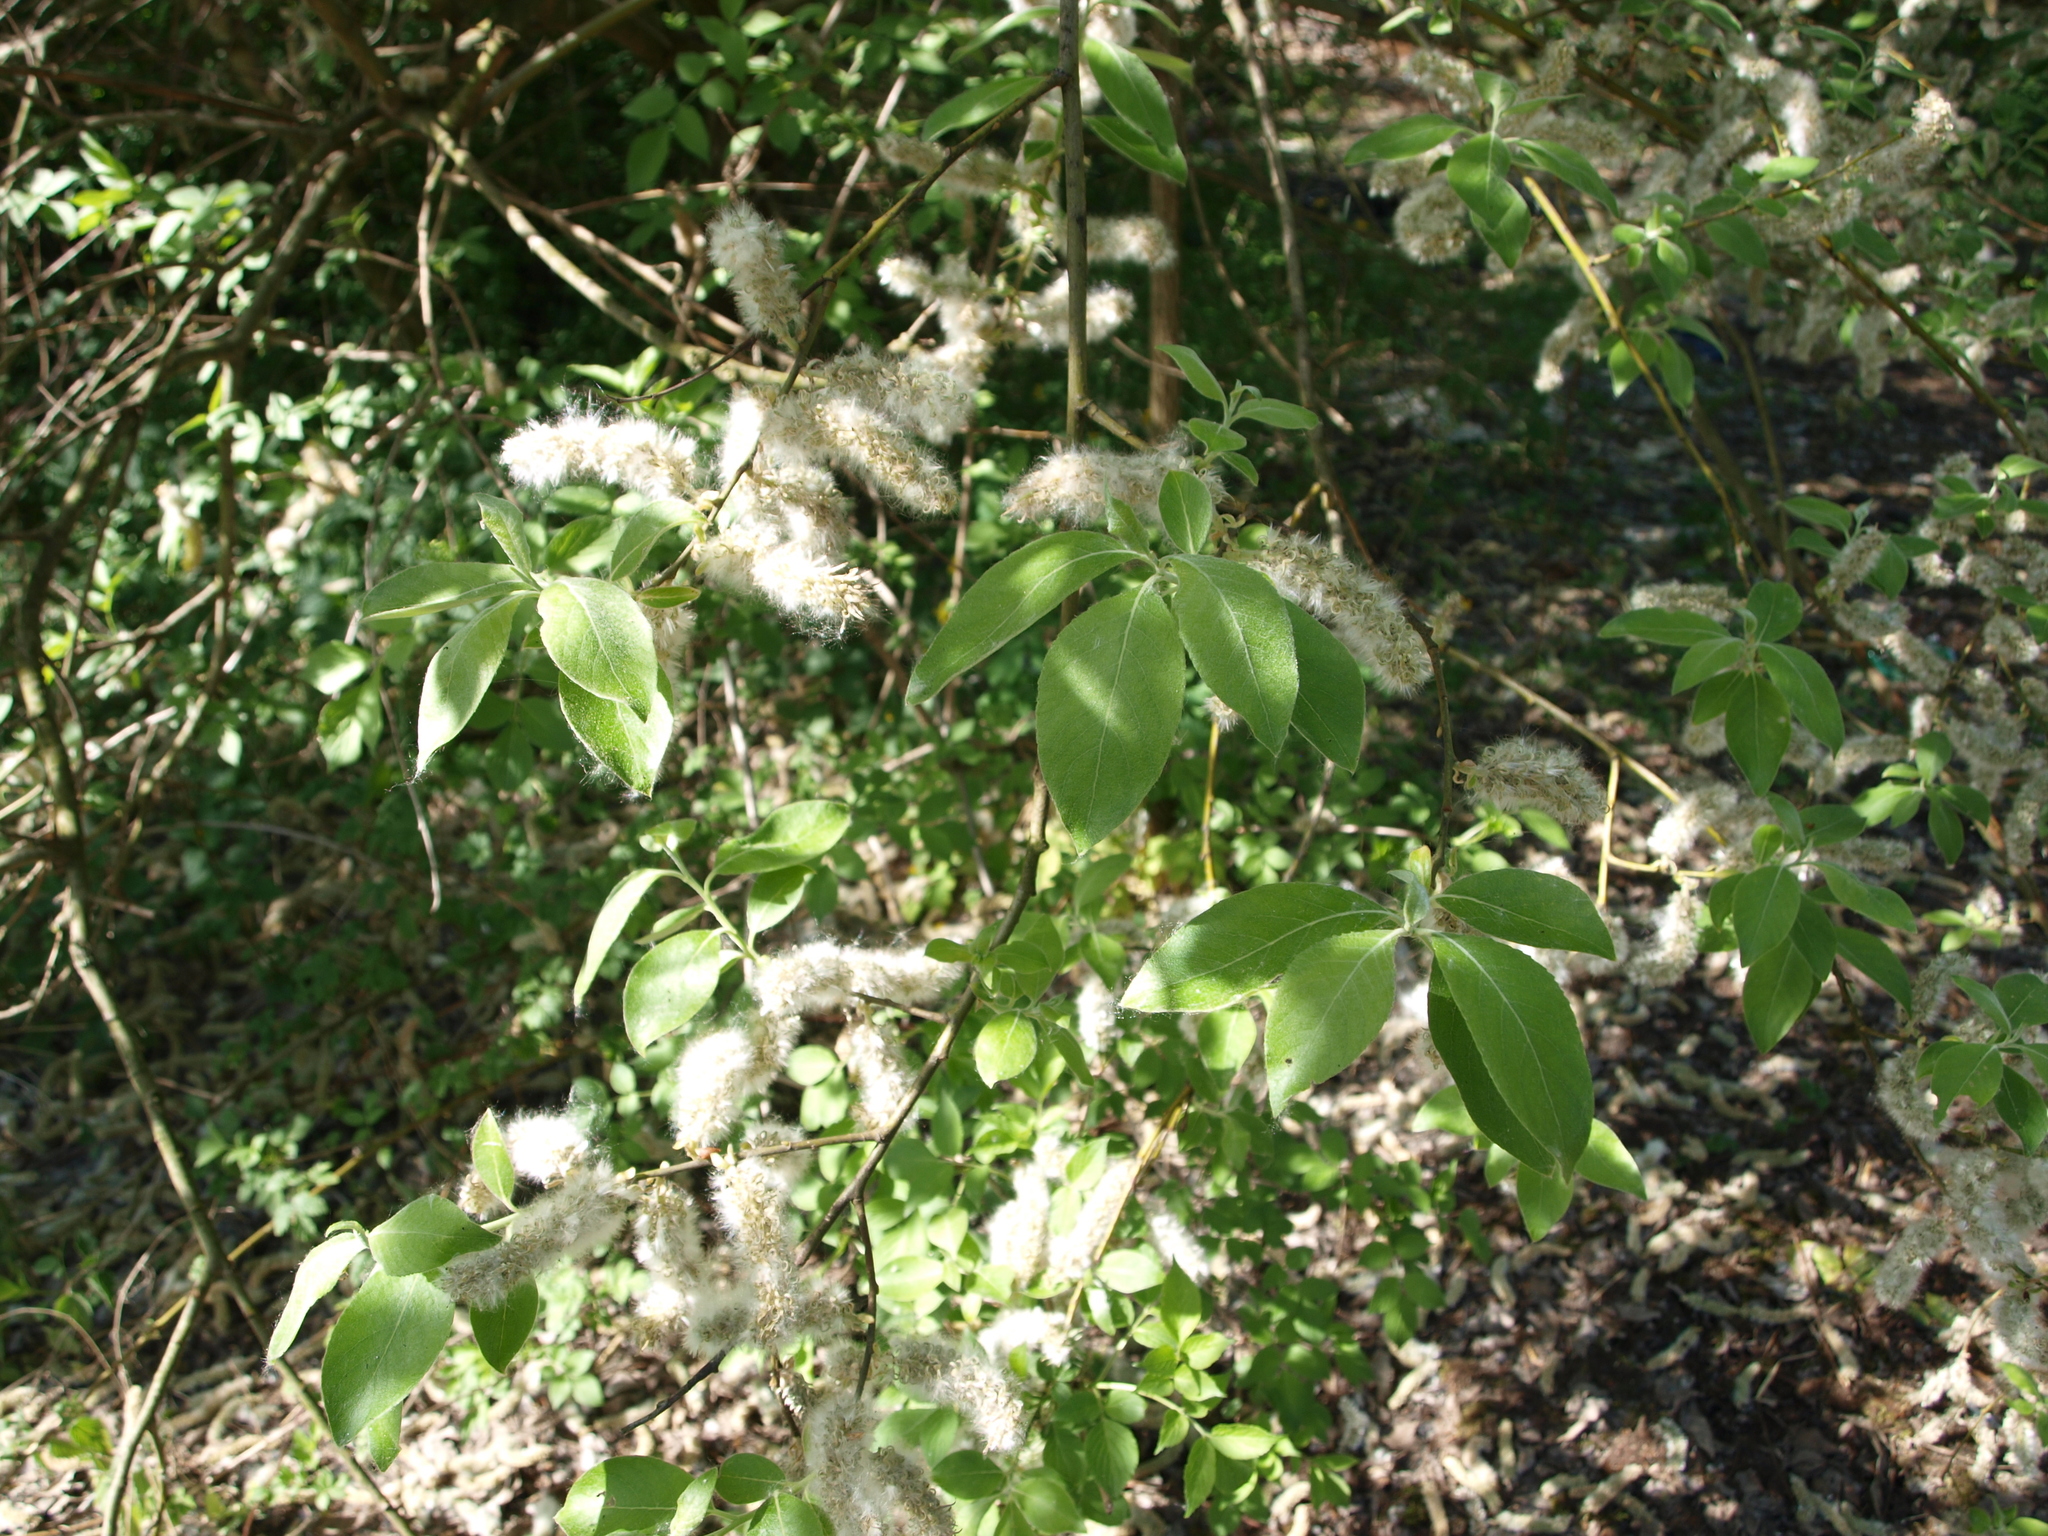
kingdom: Plantae
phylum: Tracheophyta
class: Magnoliopsida
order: Malpighiales
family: Salicaceae
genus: Salix
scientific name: Salix caprea
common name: Goat willow
